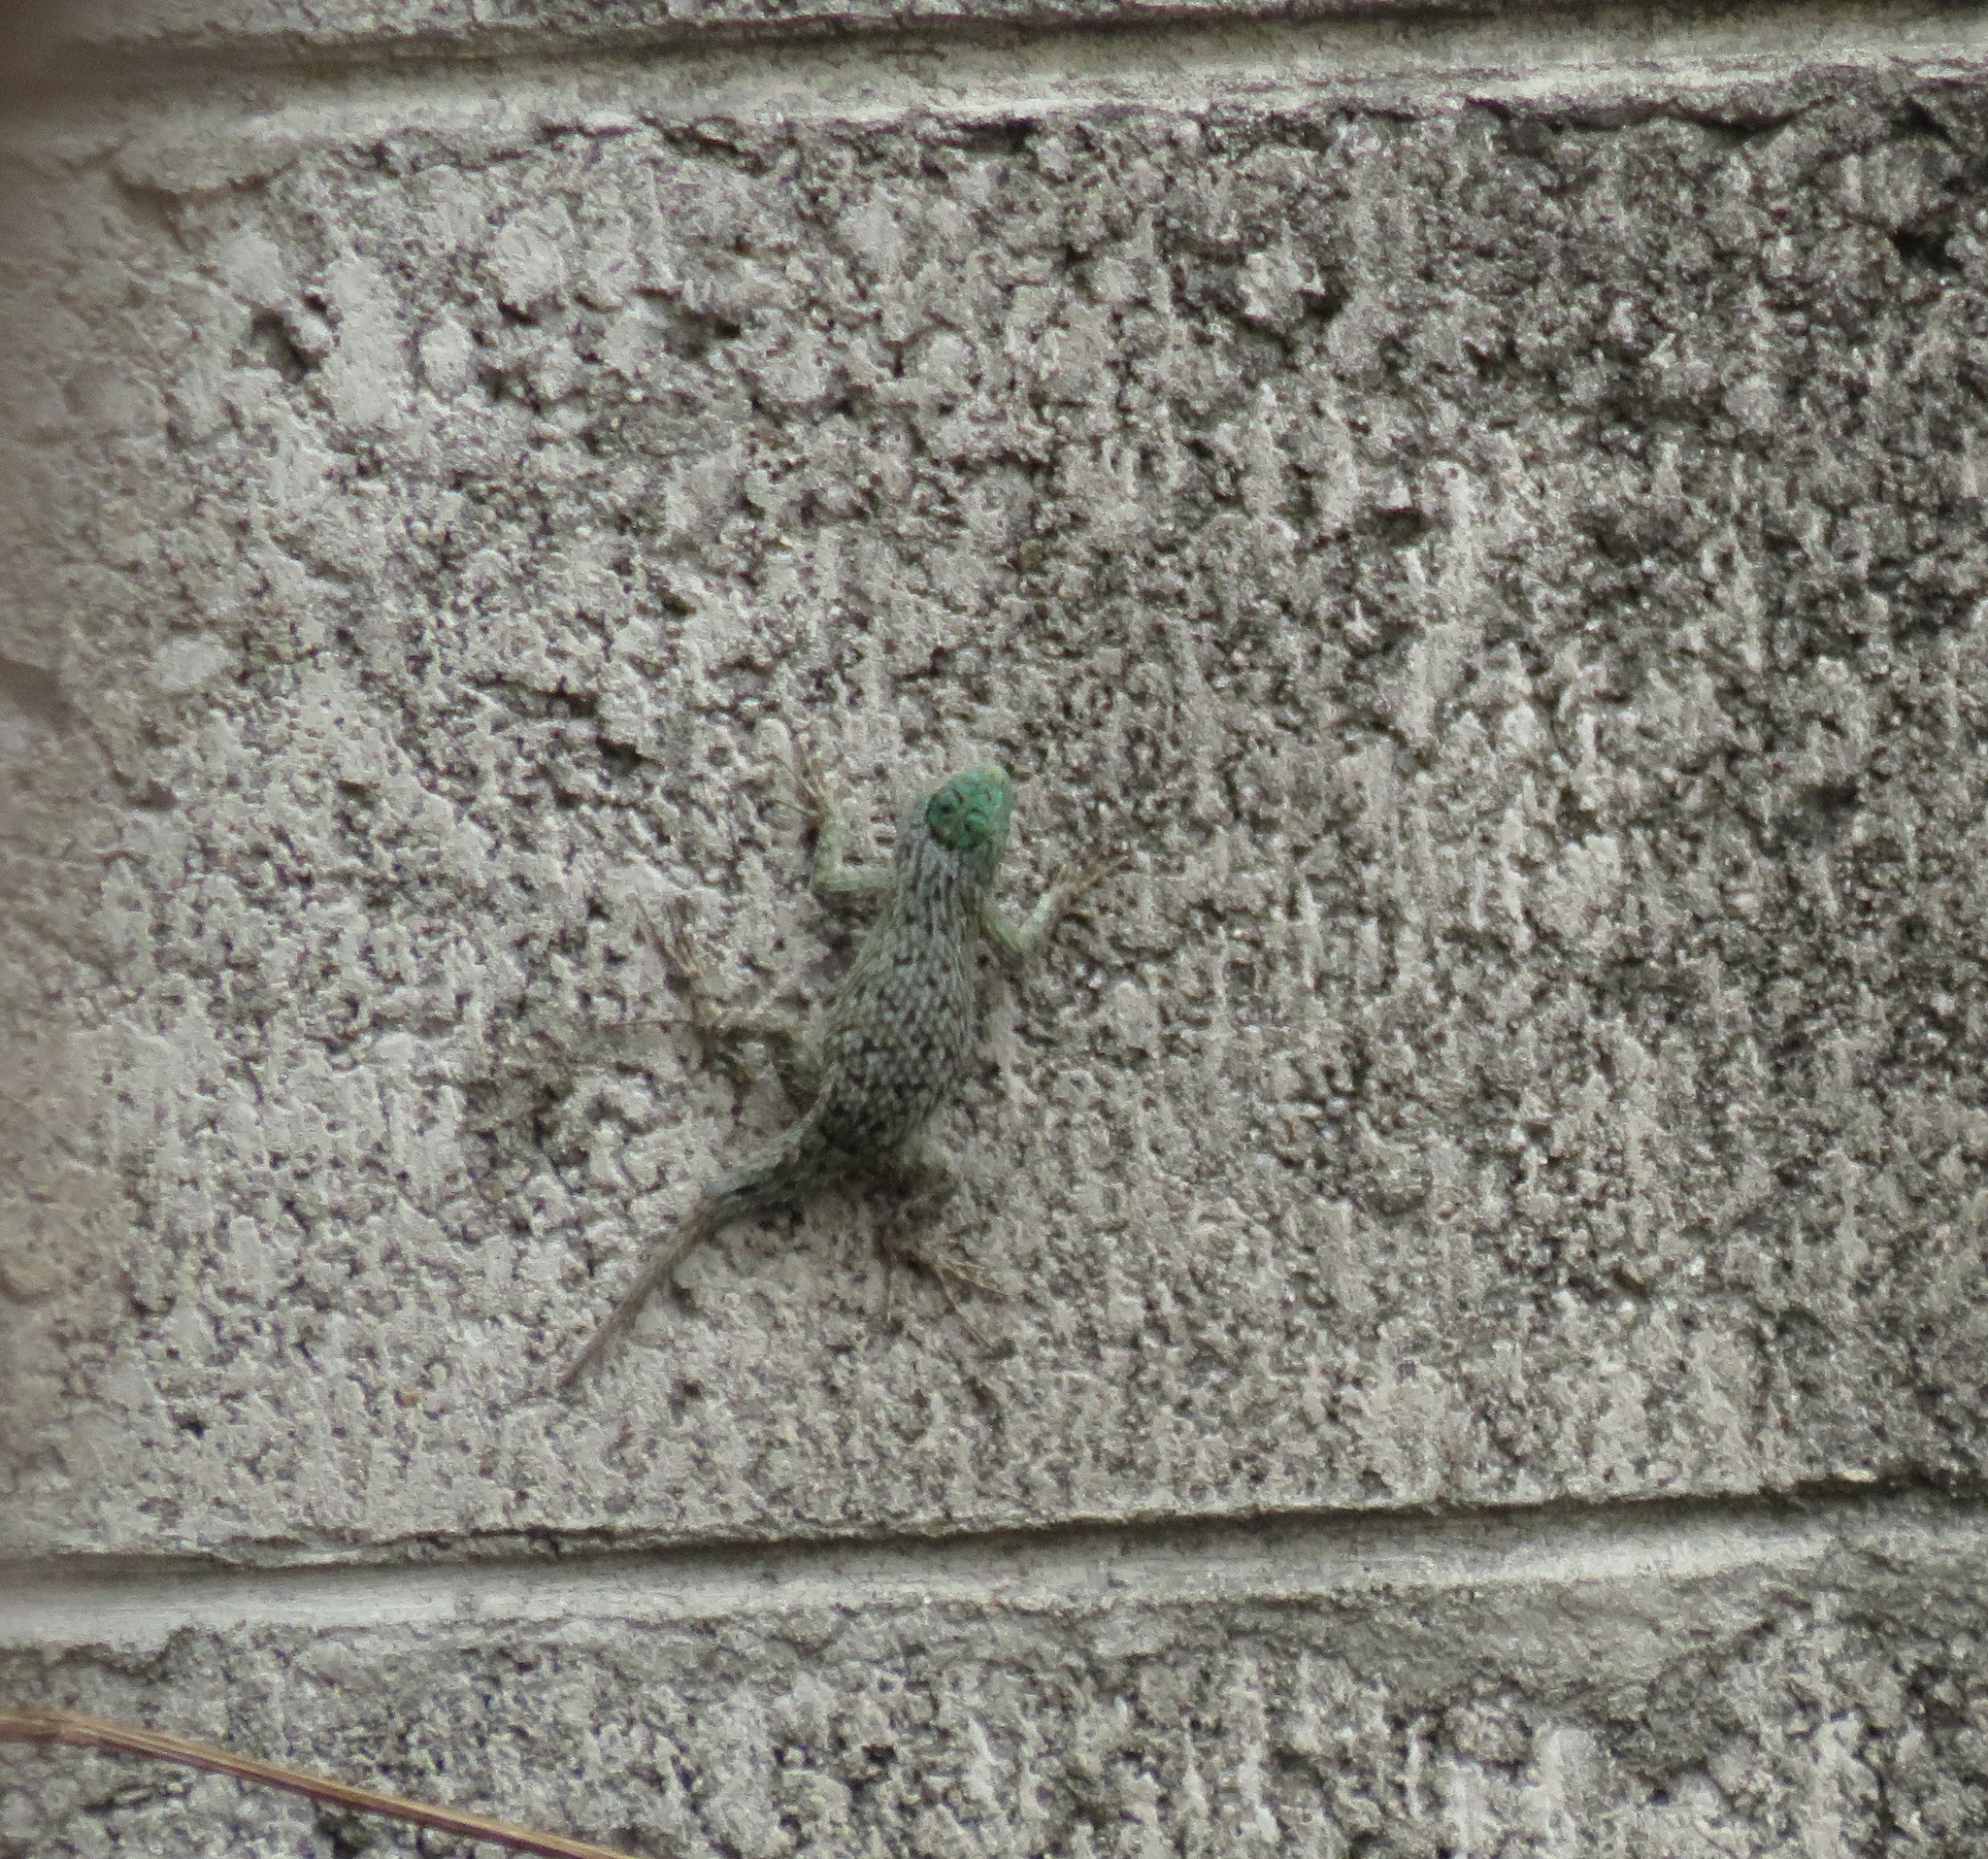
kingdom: Animalia
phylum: Chordata
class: Squamata
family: Phrynosomatidae
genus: Sceloporus
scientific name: Sceloporus malachiticus
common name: Green spiny lizard
